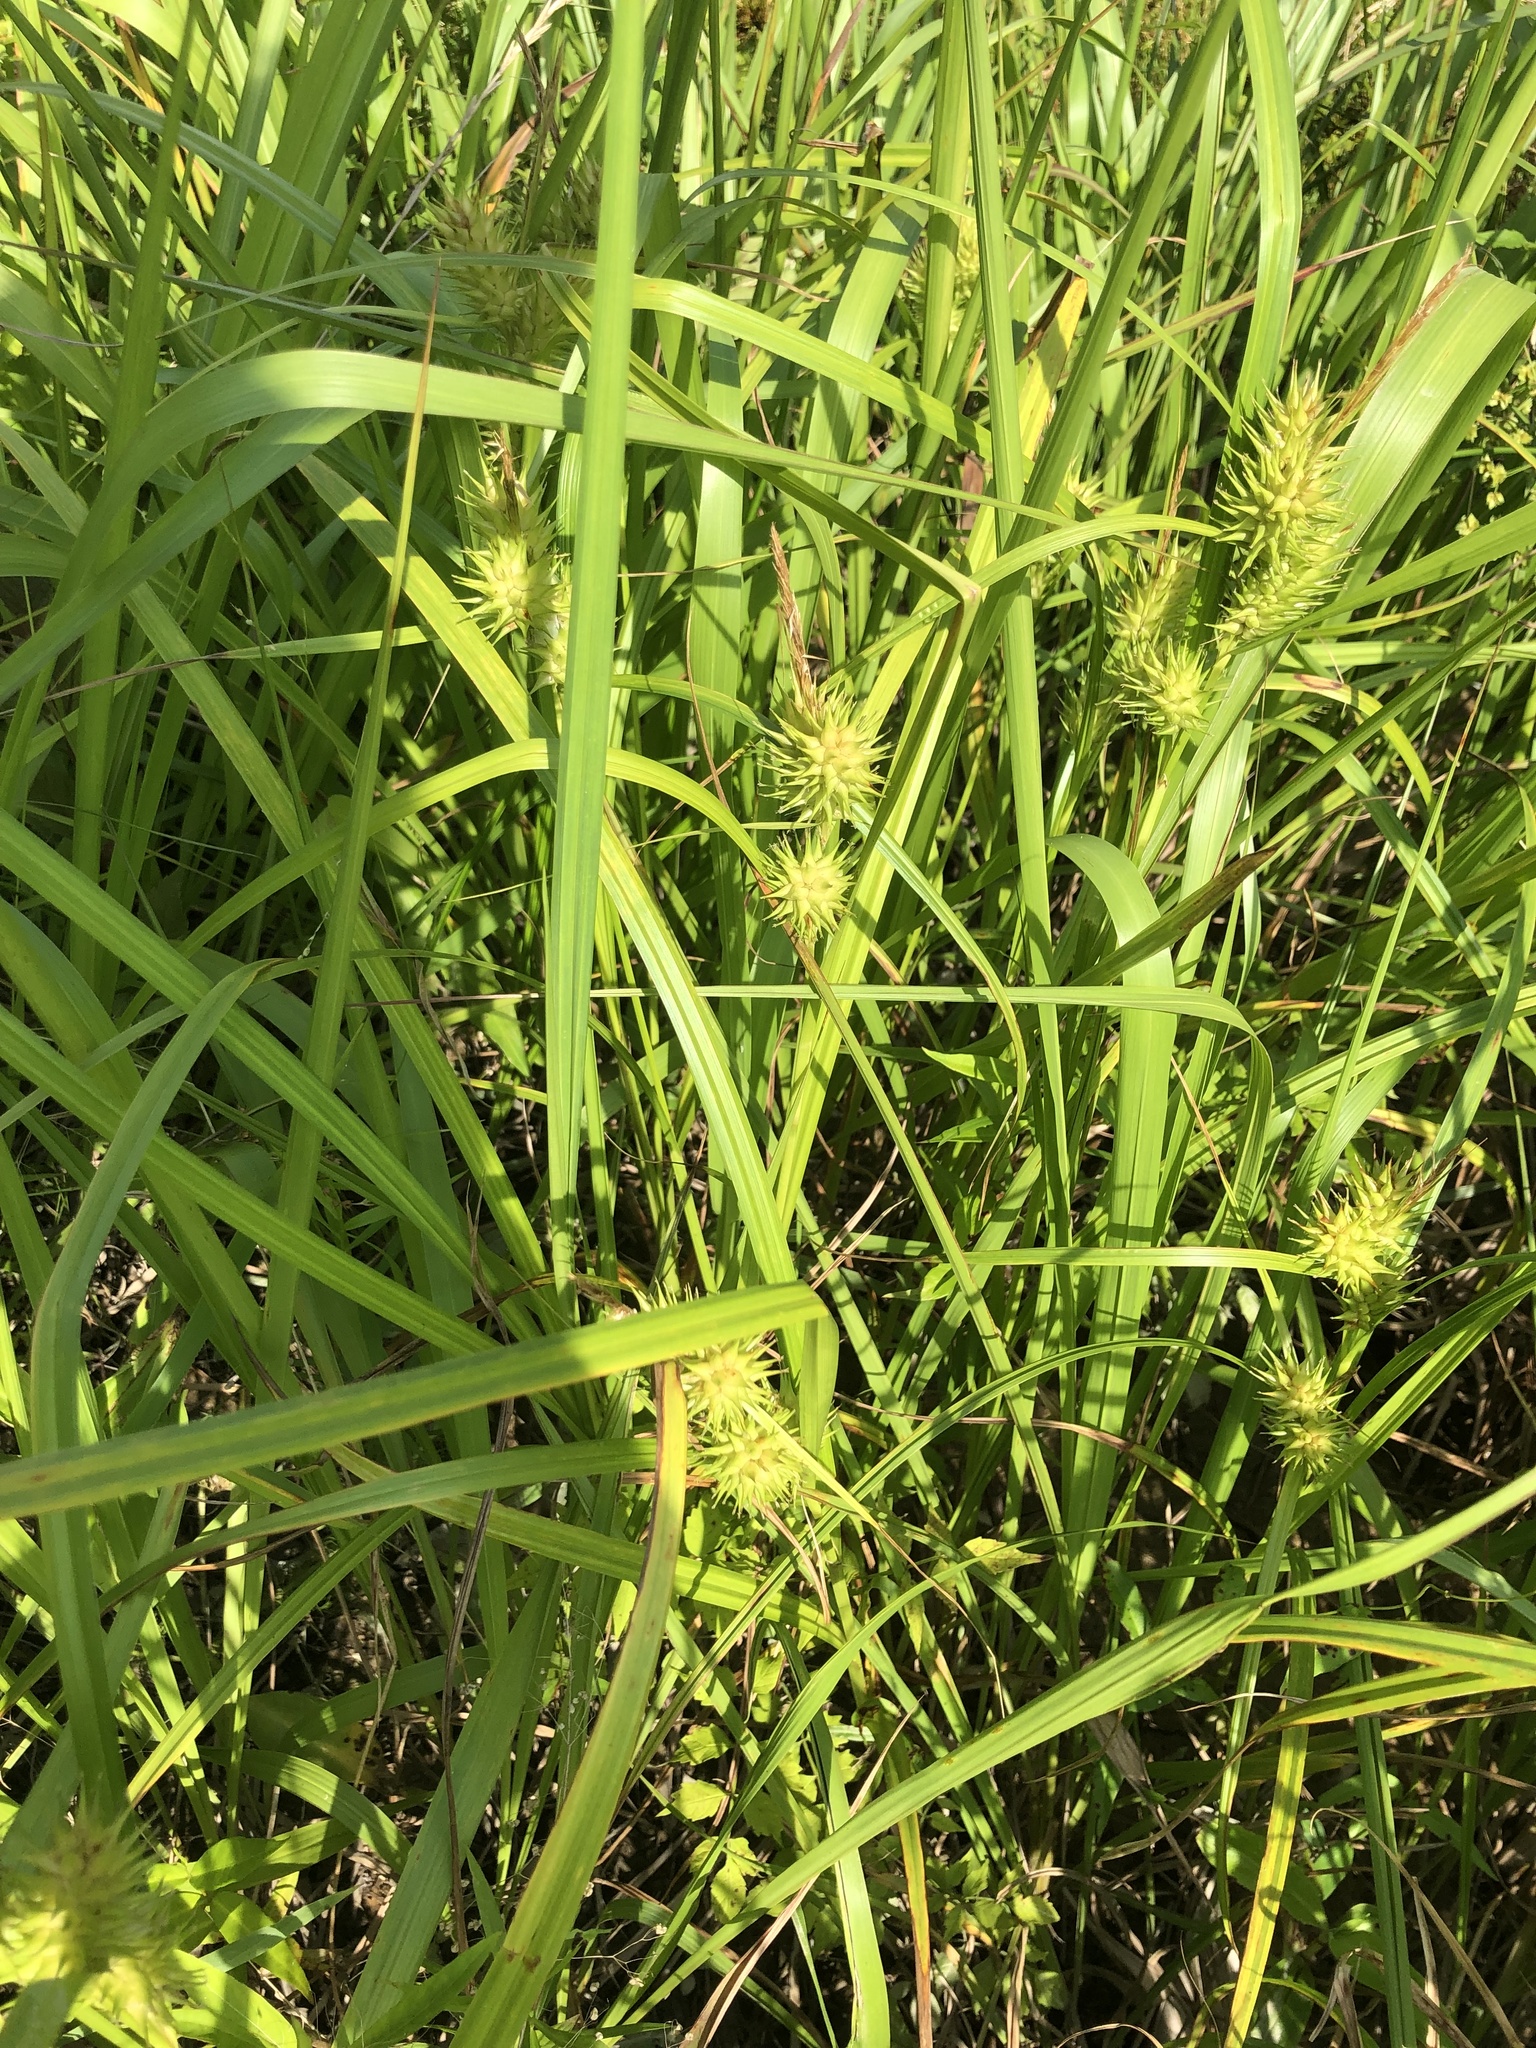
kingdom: Plantae
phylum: Tracheophyta
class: Liliopsida
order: Poales
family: Cyperaceae
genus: Carex
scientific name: Carex lupulina
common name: Hop sedge
